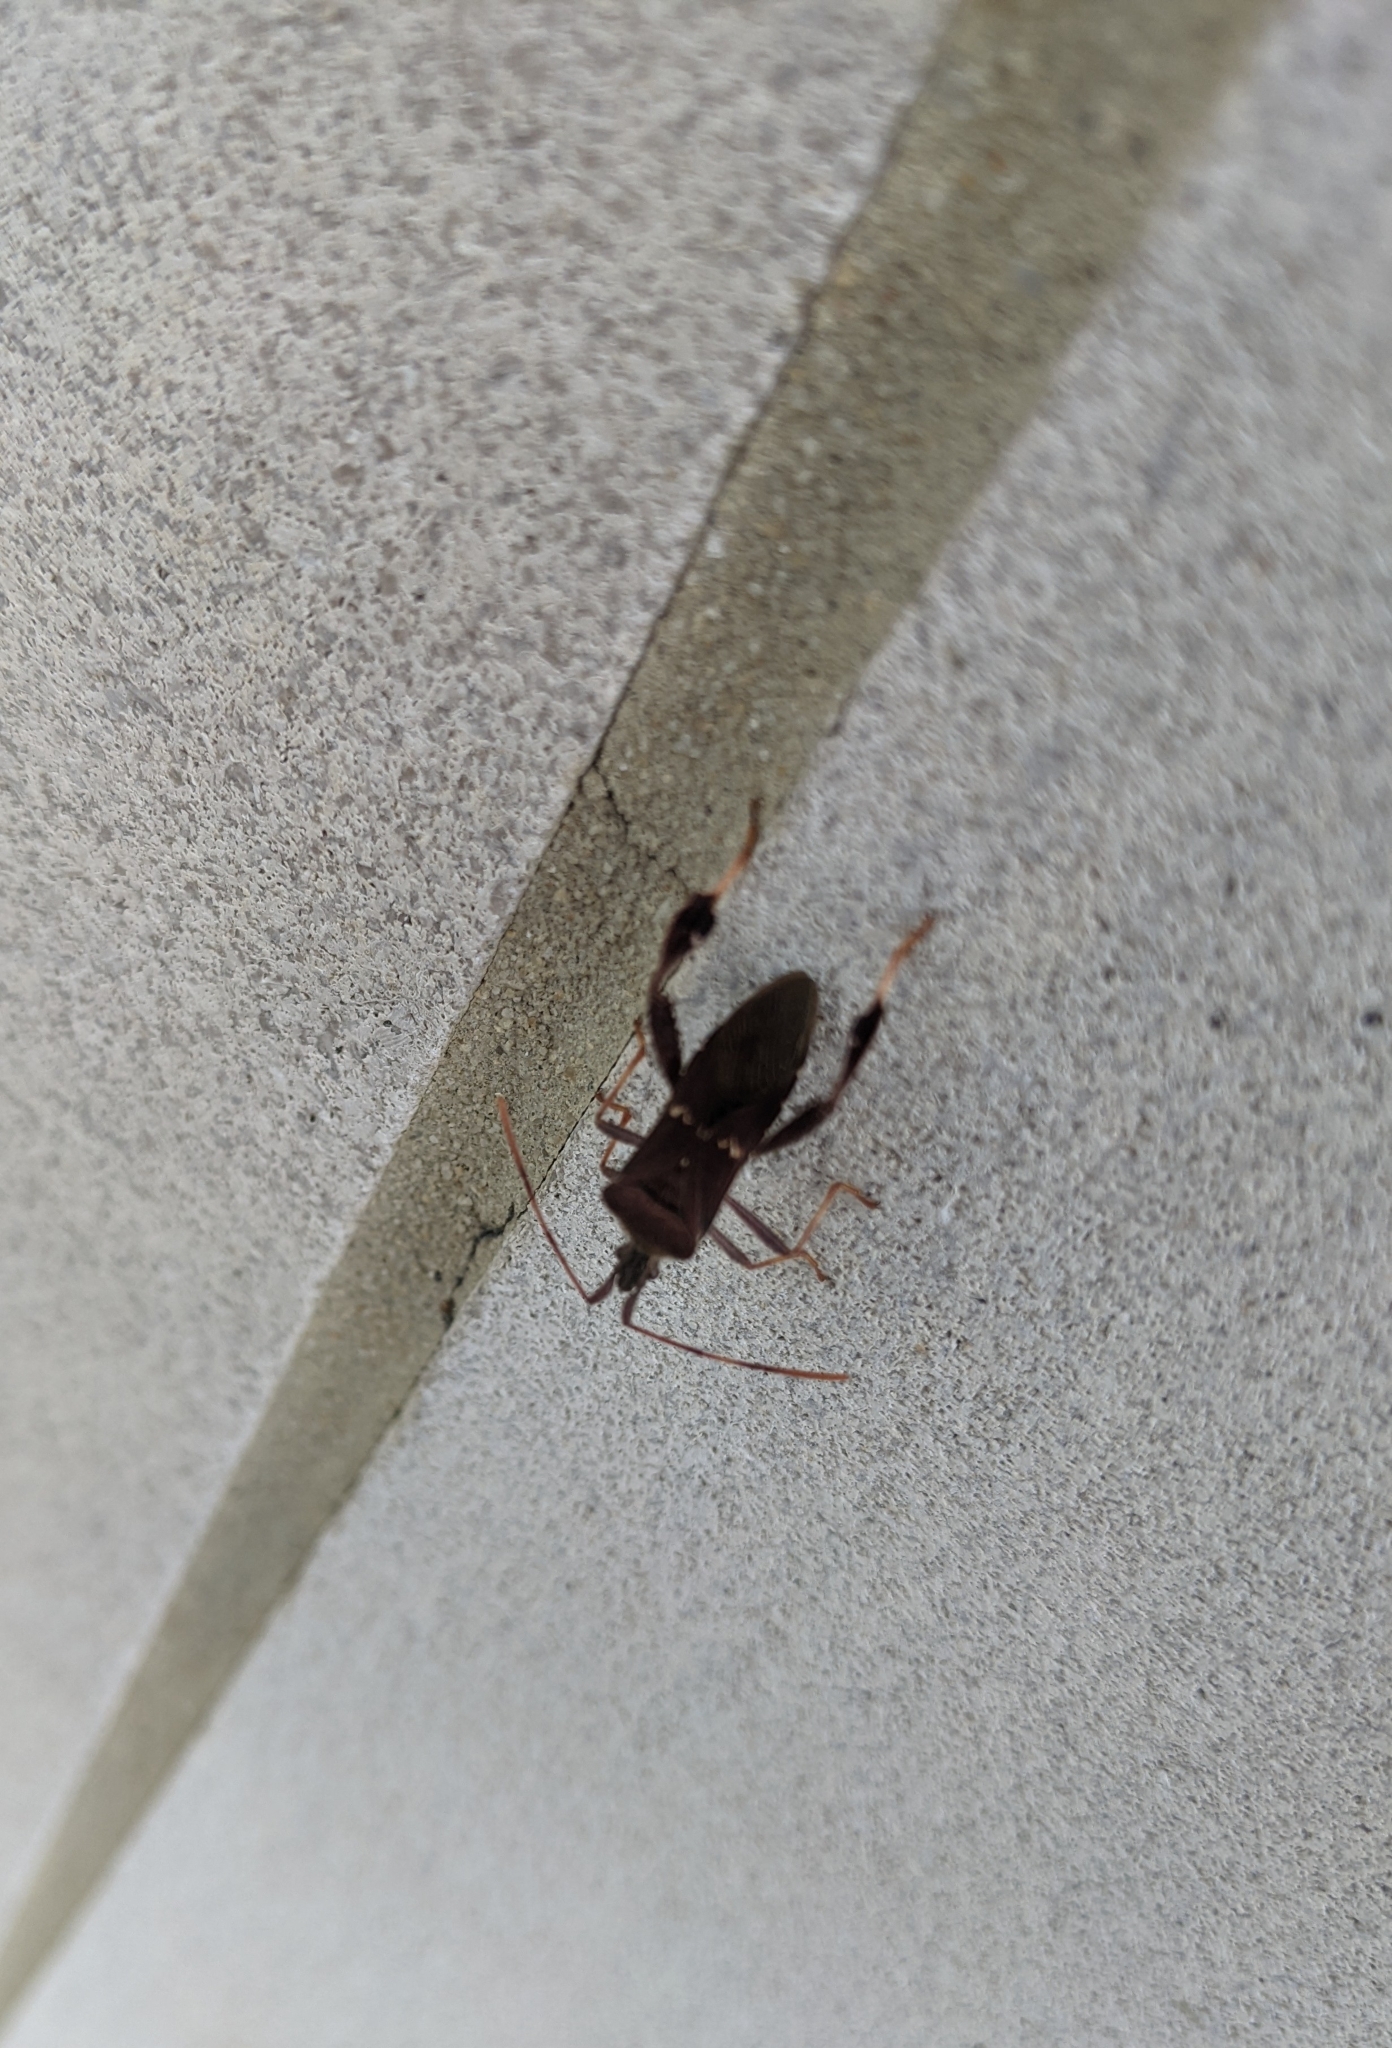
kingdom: Animalia
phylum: Arthropoda
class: Insecta
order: Hemiptera
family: Coreidae
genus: Leptoglossus
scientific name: Leptoglossus oppositus
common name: Northern leaf-footed bug
